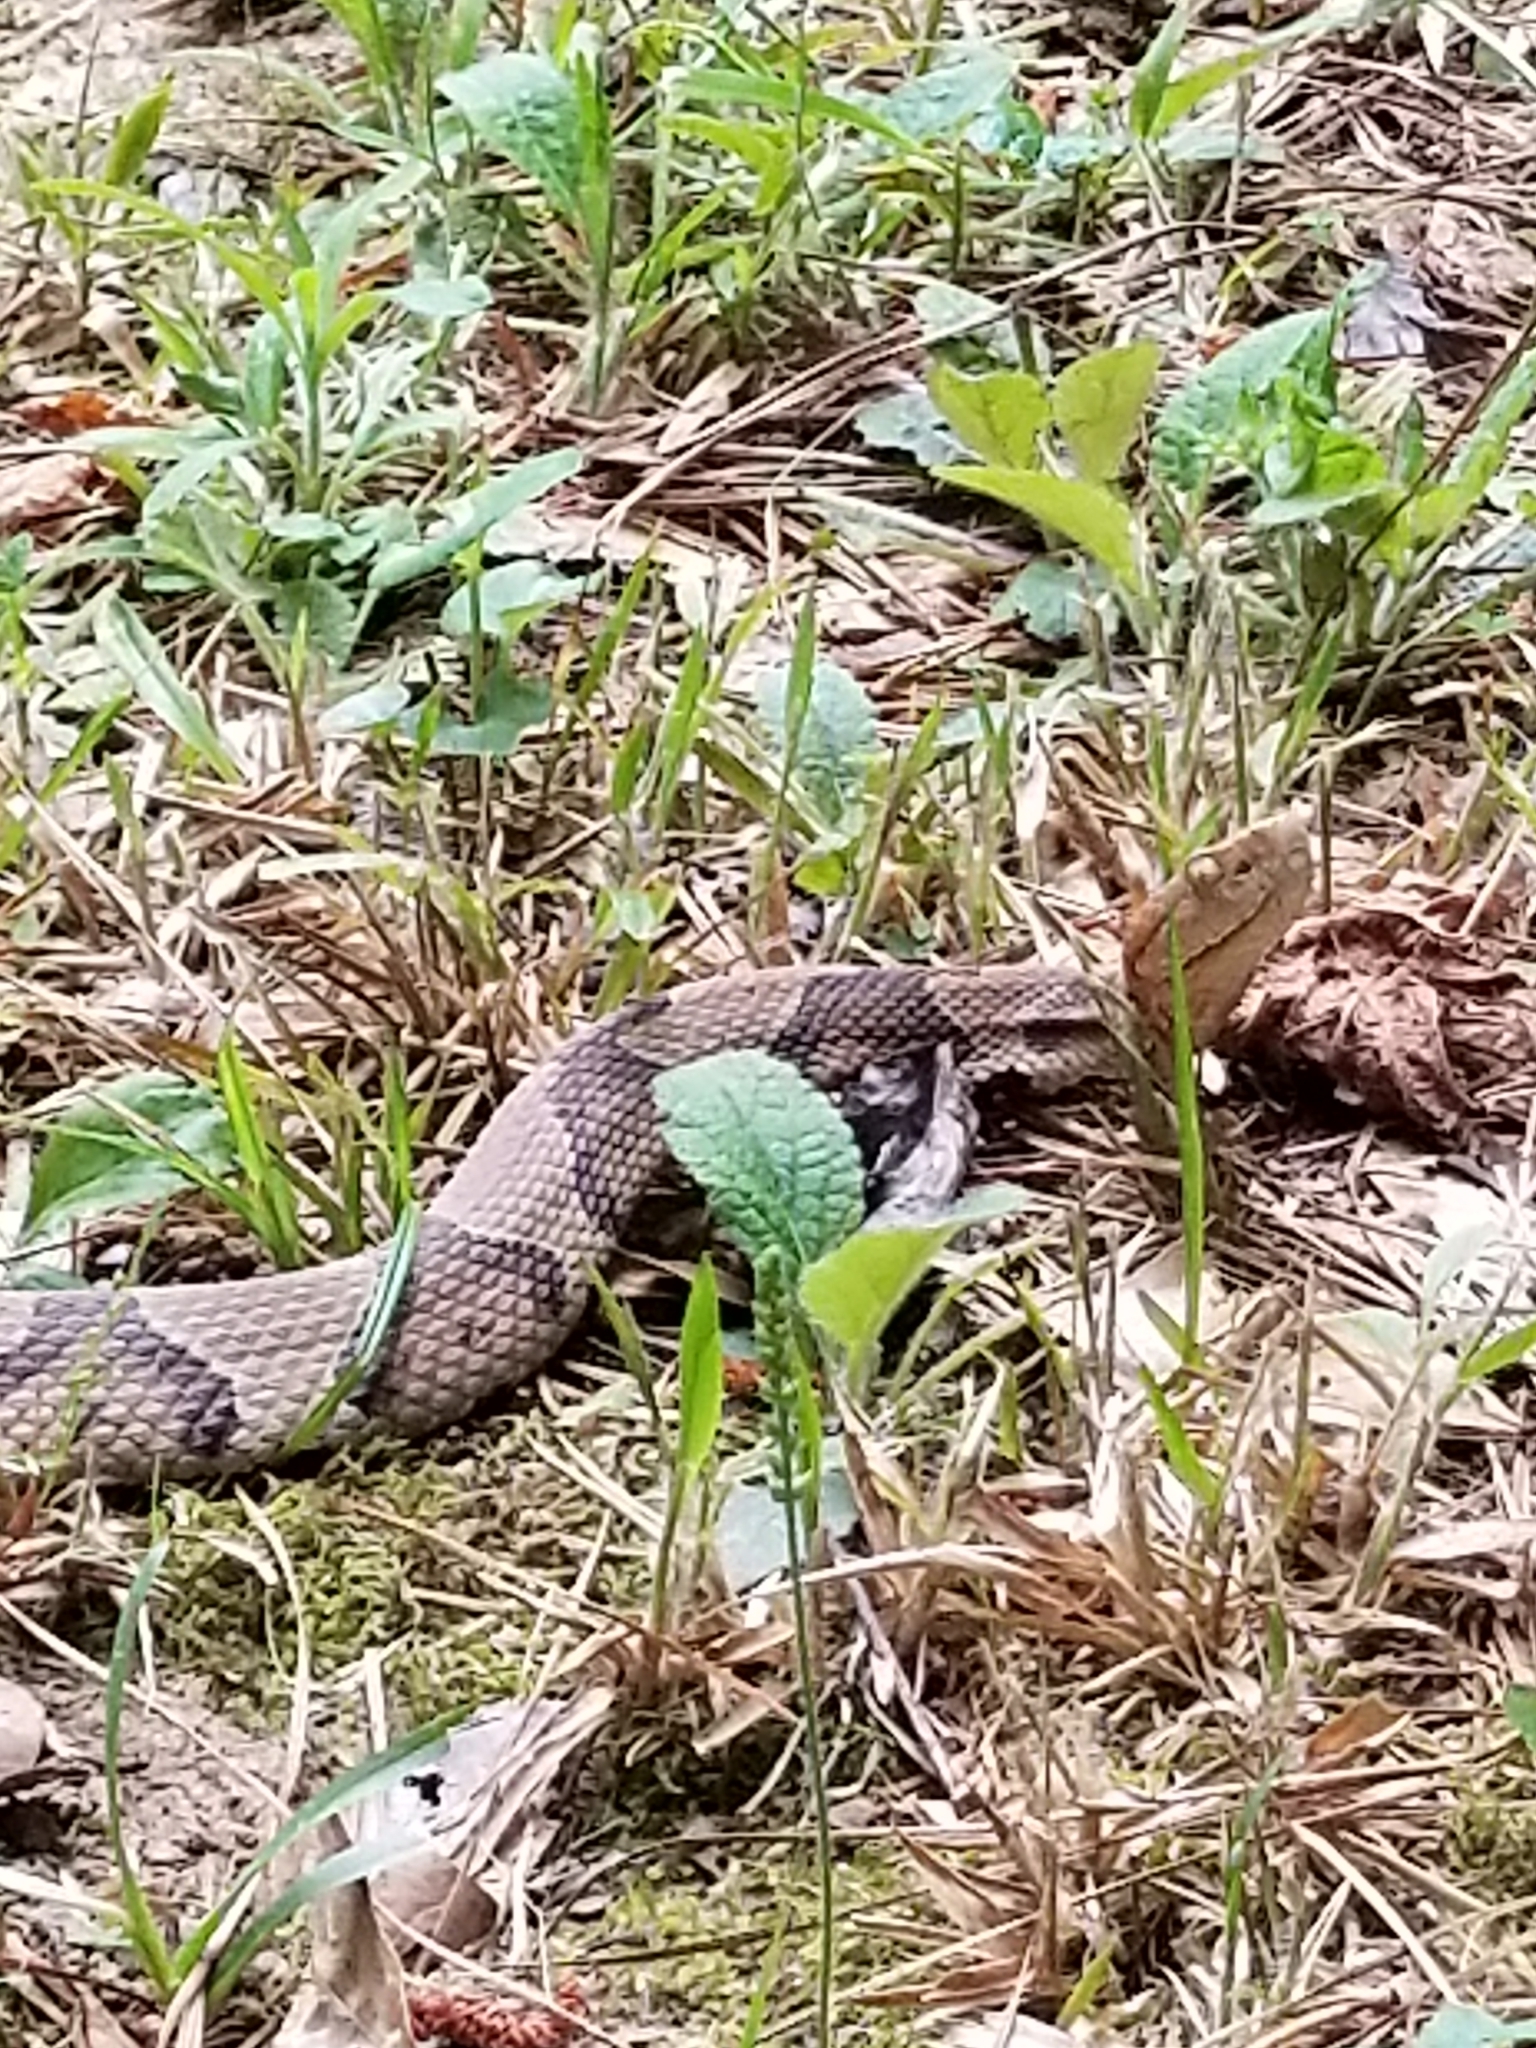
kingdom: Animalia
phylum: Chordata
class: Squamata
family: Viperidae
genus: Agkistrodon
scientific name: Agkistrodon contortrix
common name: Northern copperhead
